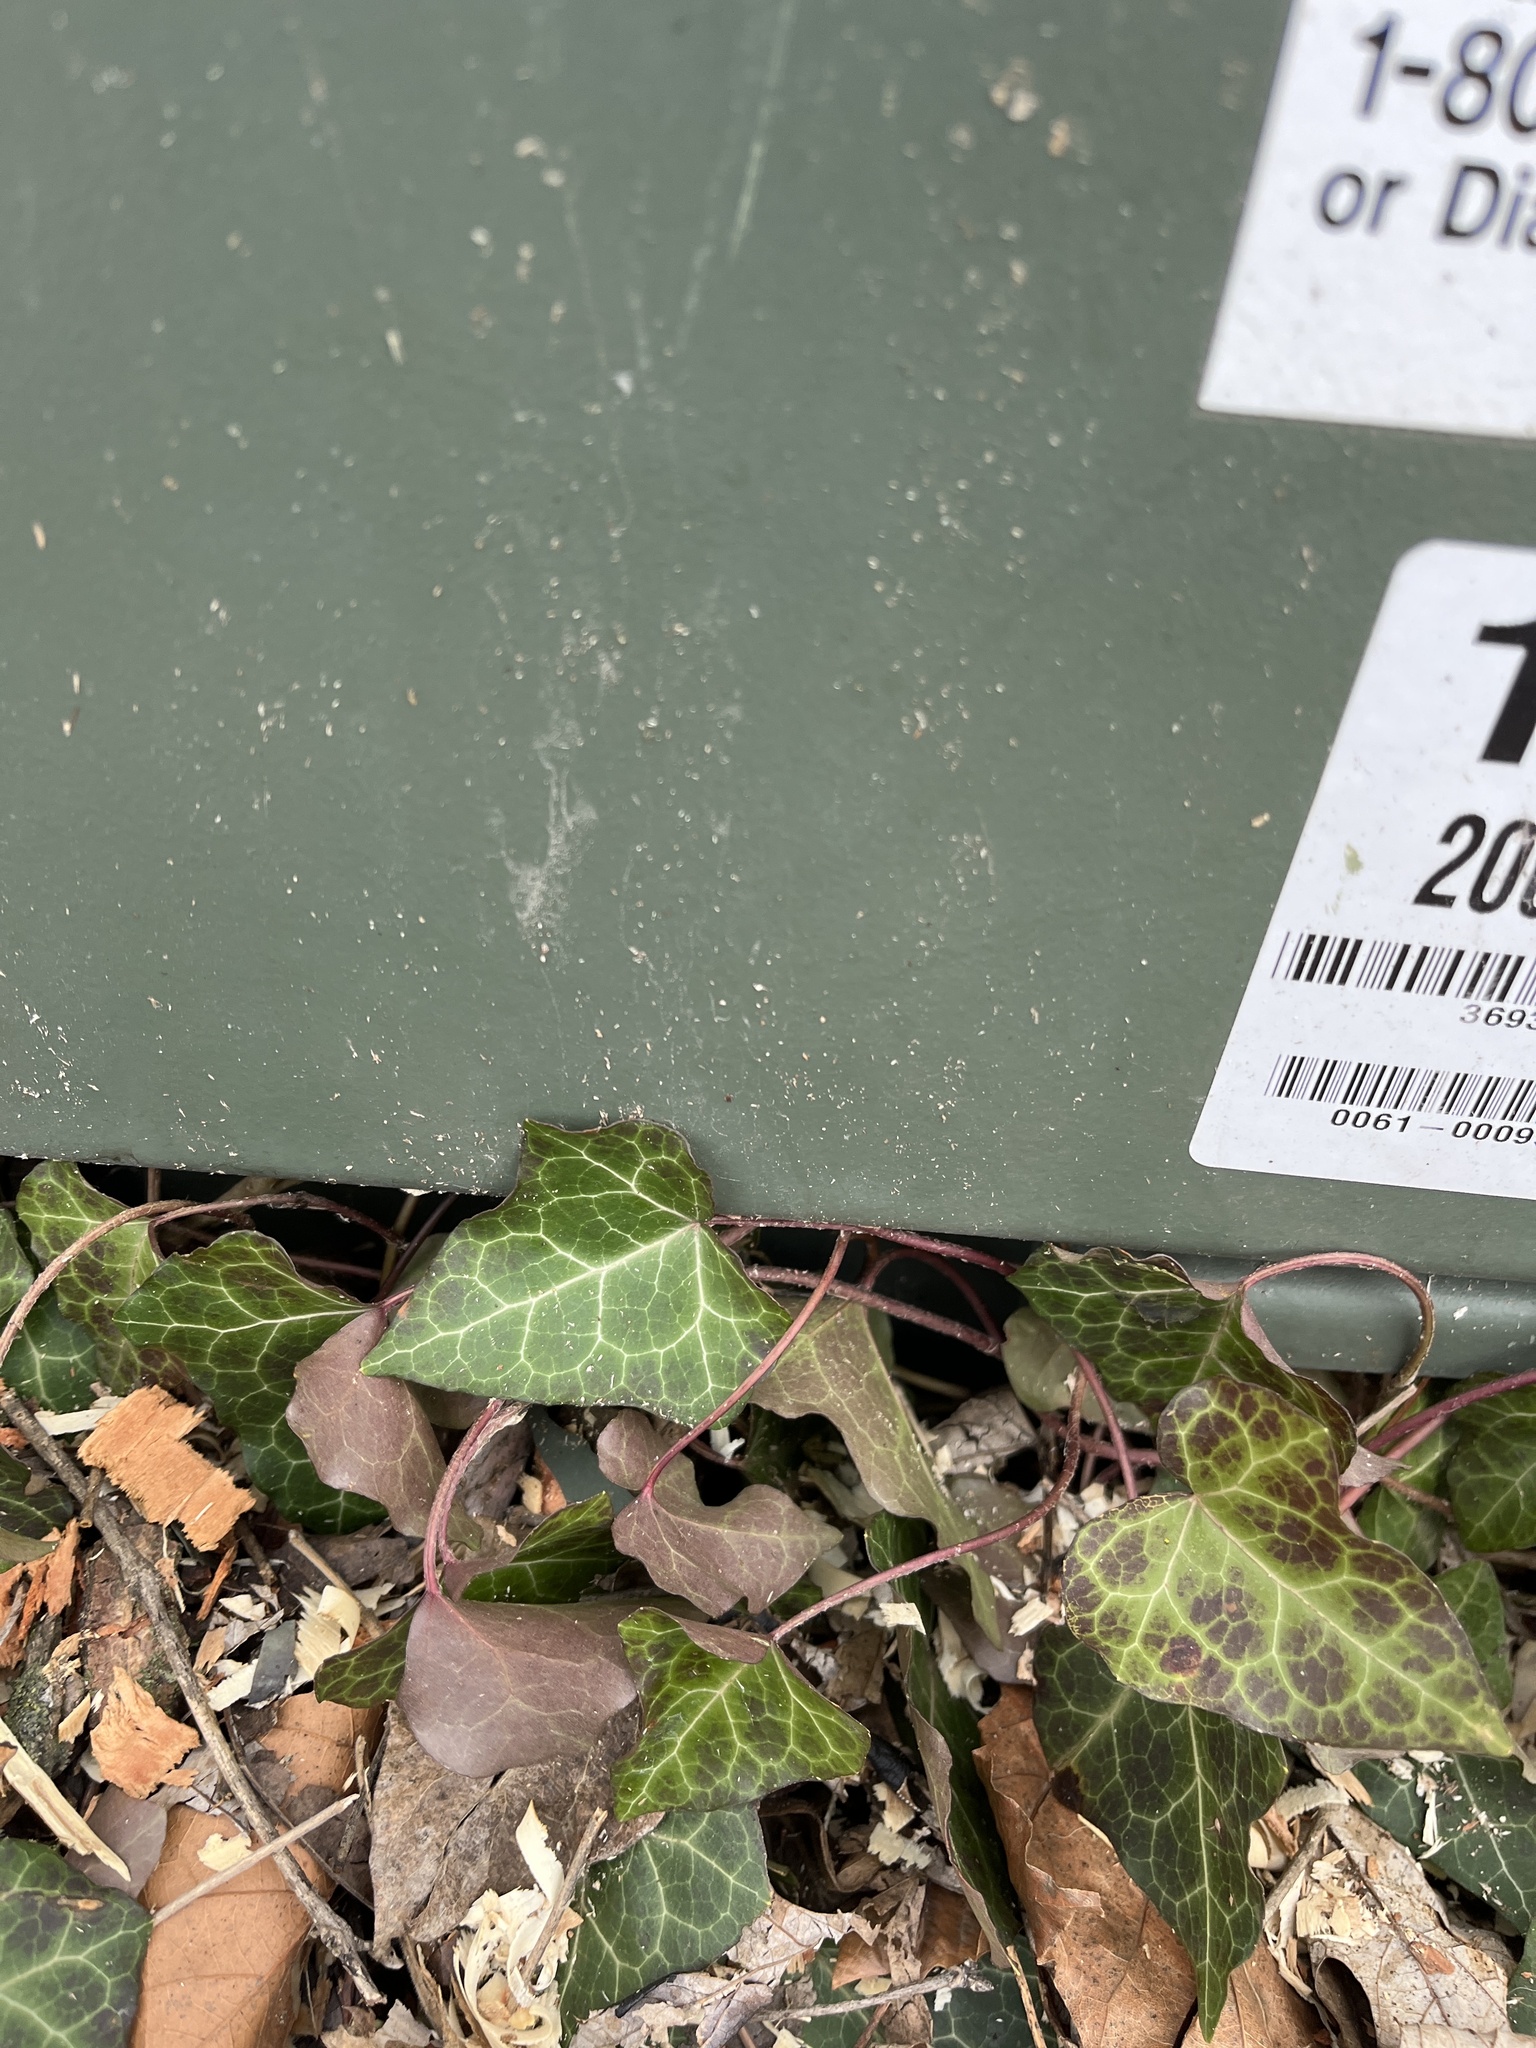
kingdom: Plantae
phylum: Tracheophyta
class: Magnoliopsida
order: Apiales
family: Araliaceae
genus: Hedera
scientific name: Hedera helix
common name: Ivy
